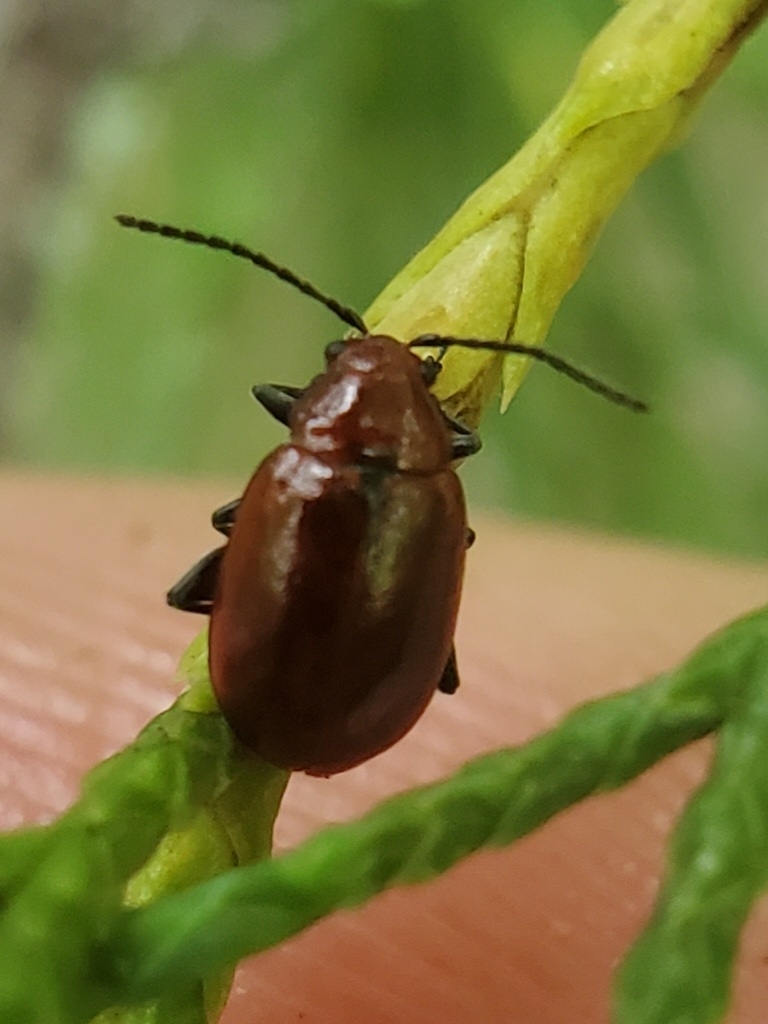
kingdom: Animalia
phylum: Arthropoda
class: Insecta
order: Coleoptera
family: Chrysomelidae
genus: Strabala
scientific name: Strabala rufa
